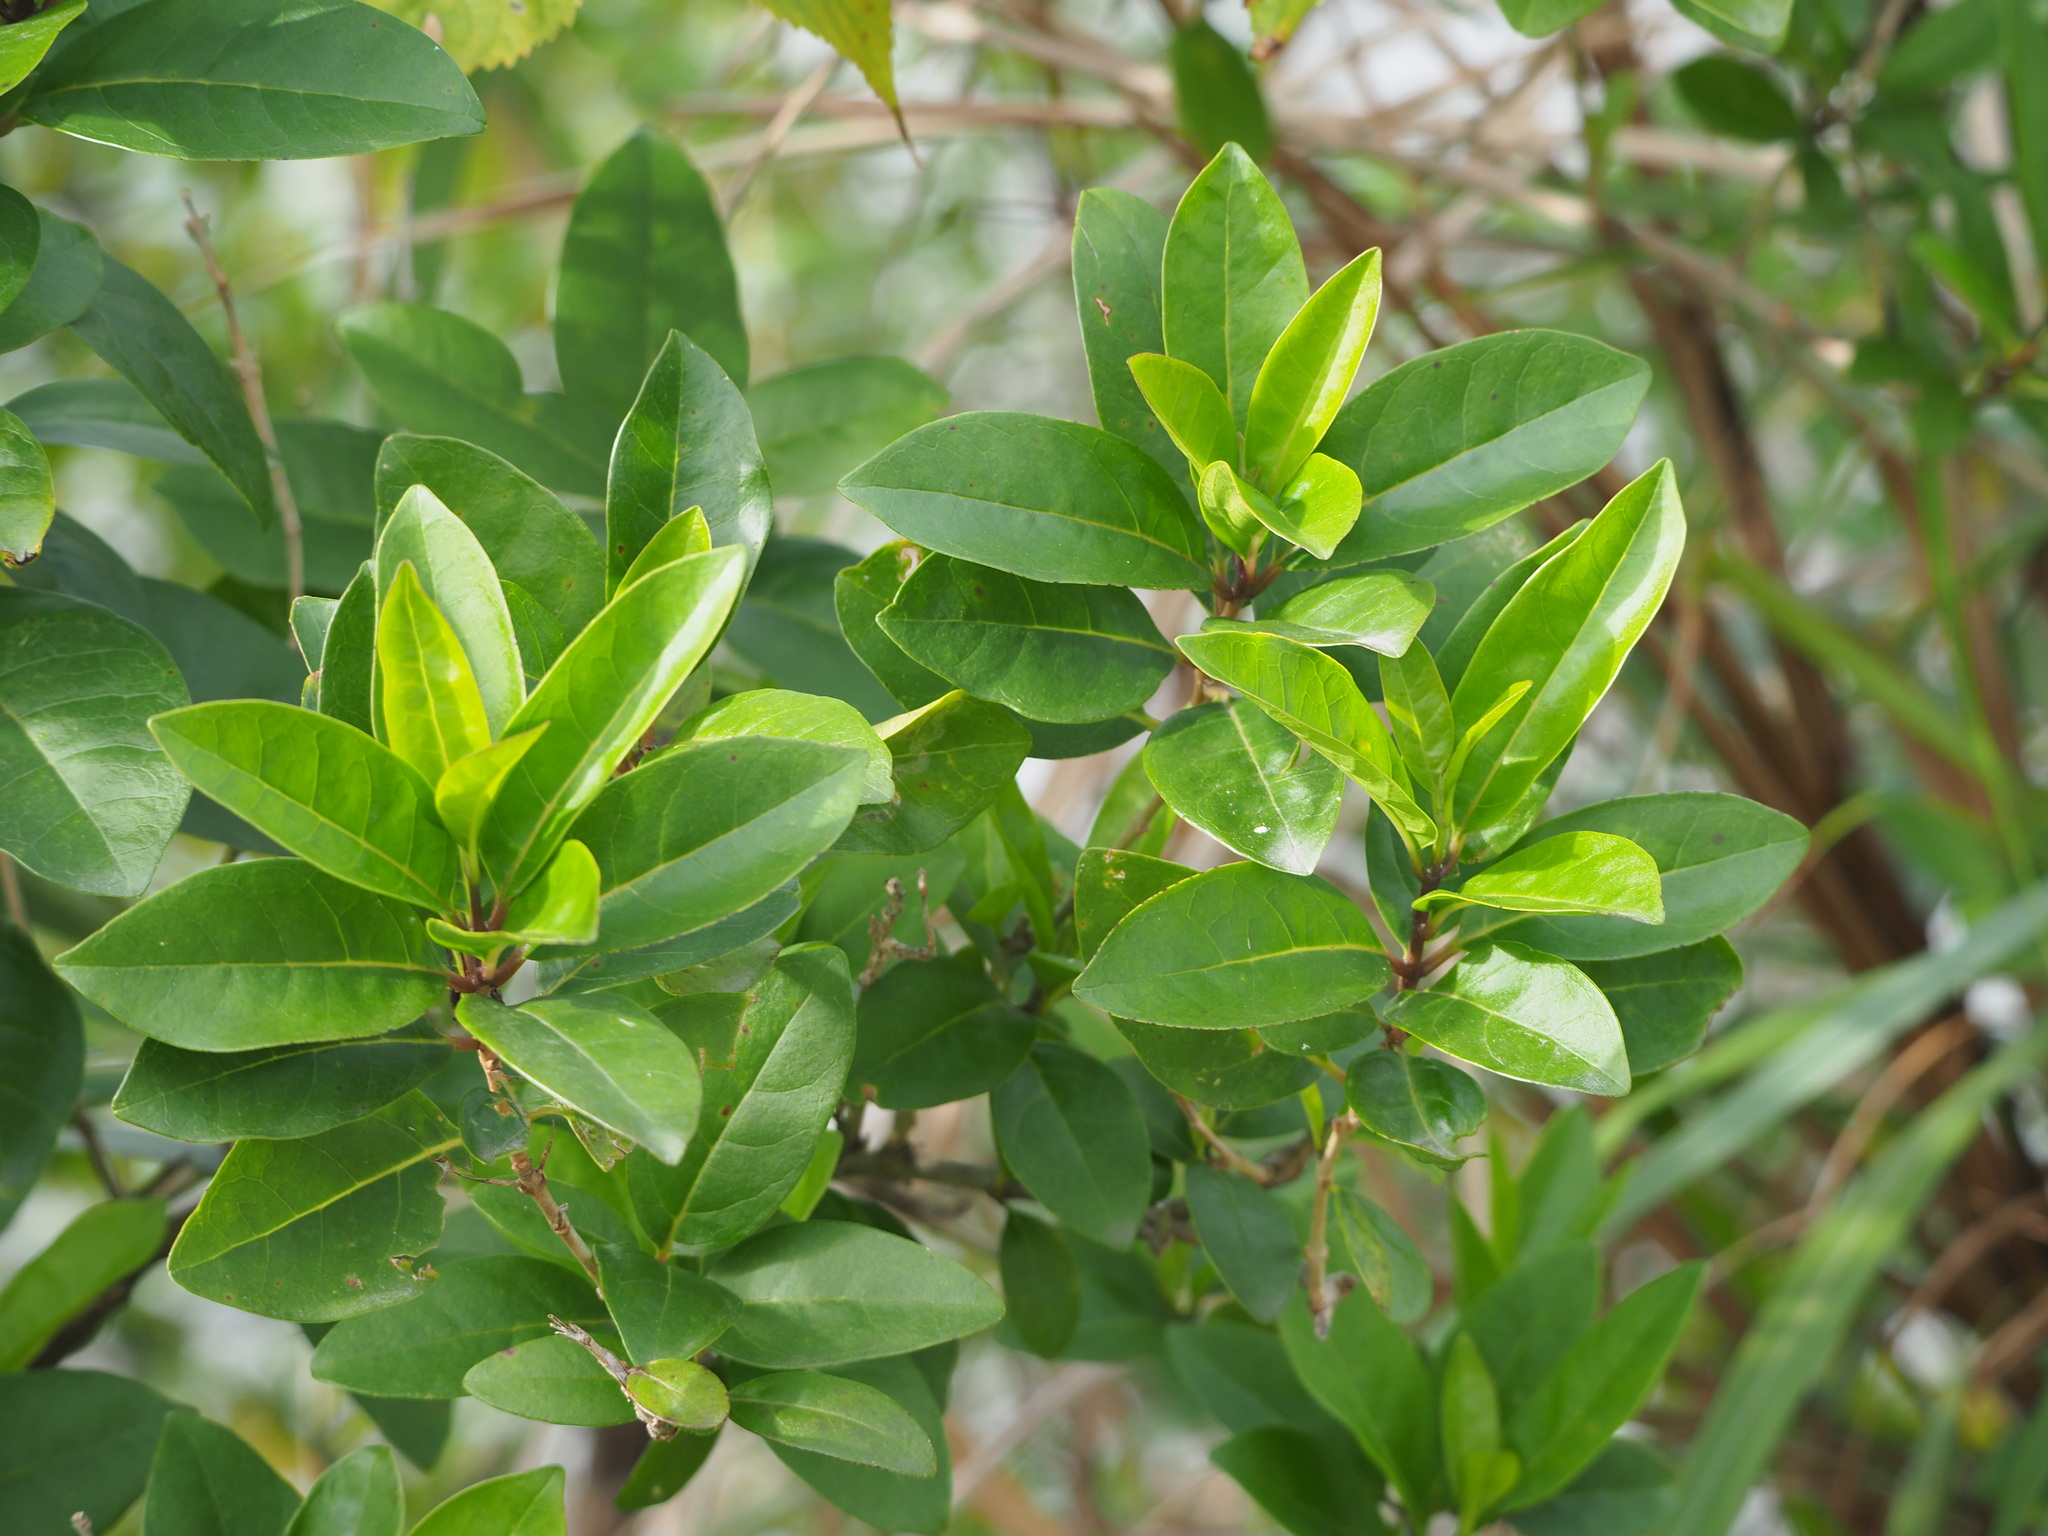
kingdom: Plantae
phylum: Tracheophyta
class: Magnoliopsida
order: Lamiales
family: Lamiaceae
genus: Volkameria
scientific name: Volkameria inermis
